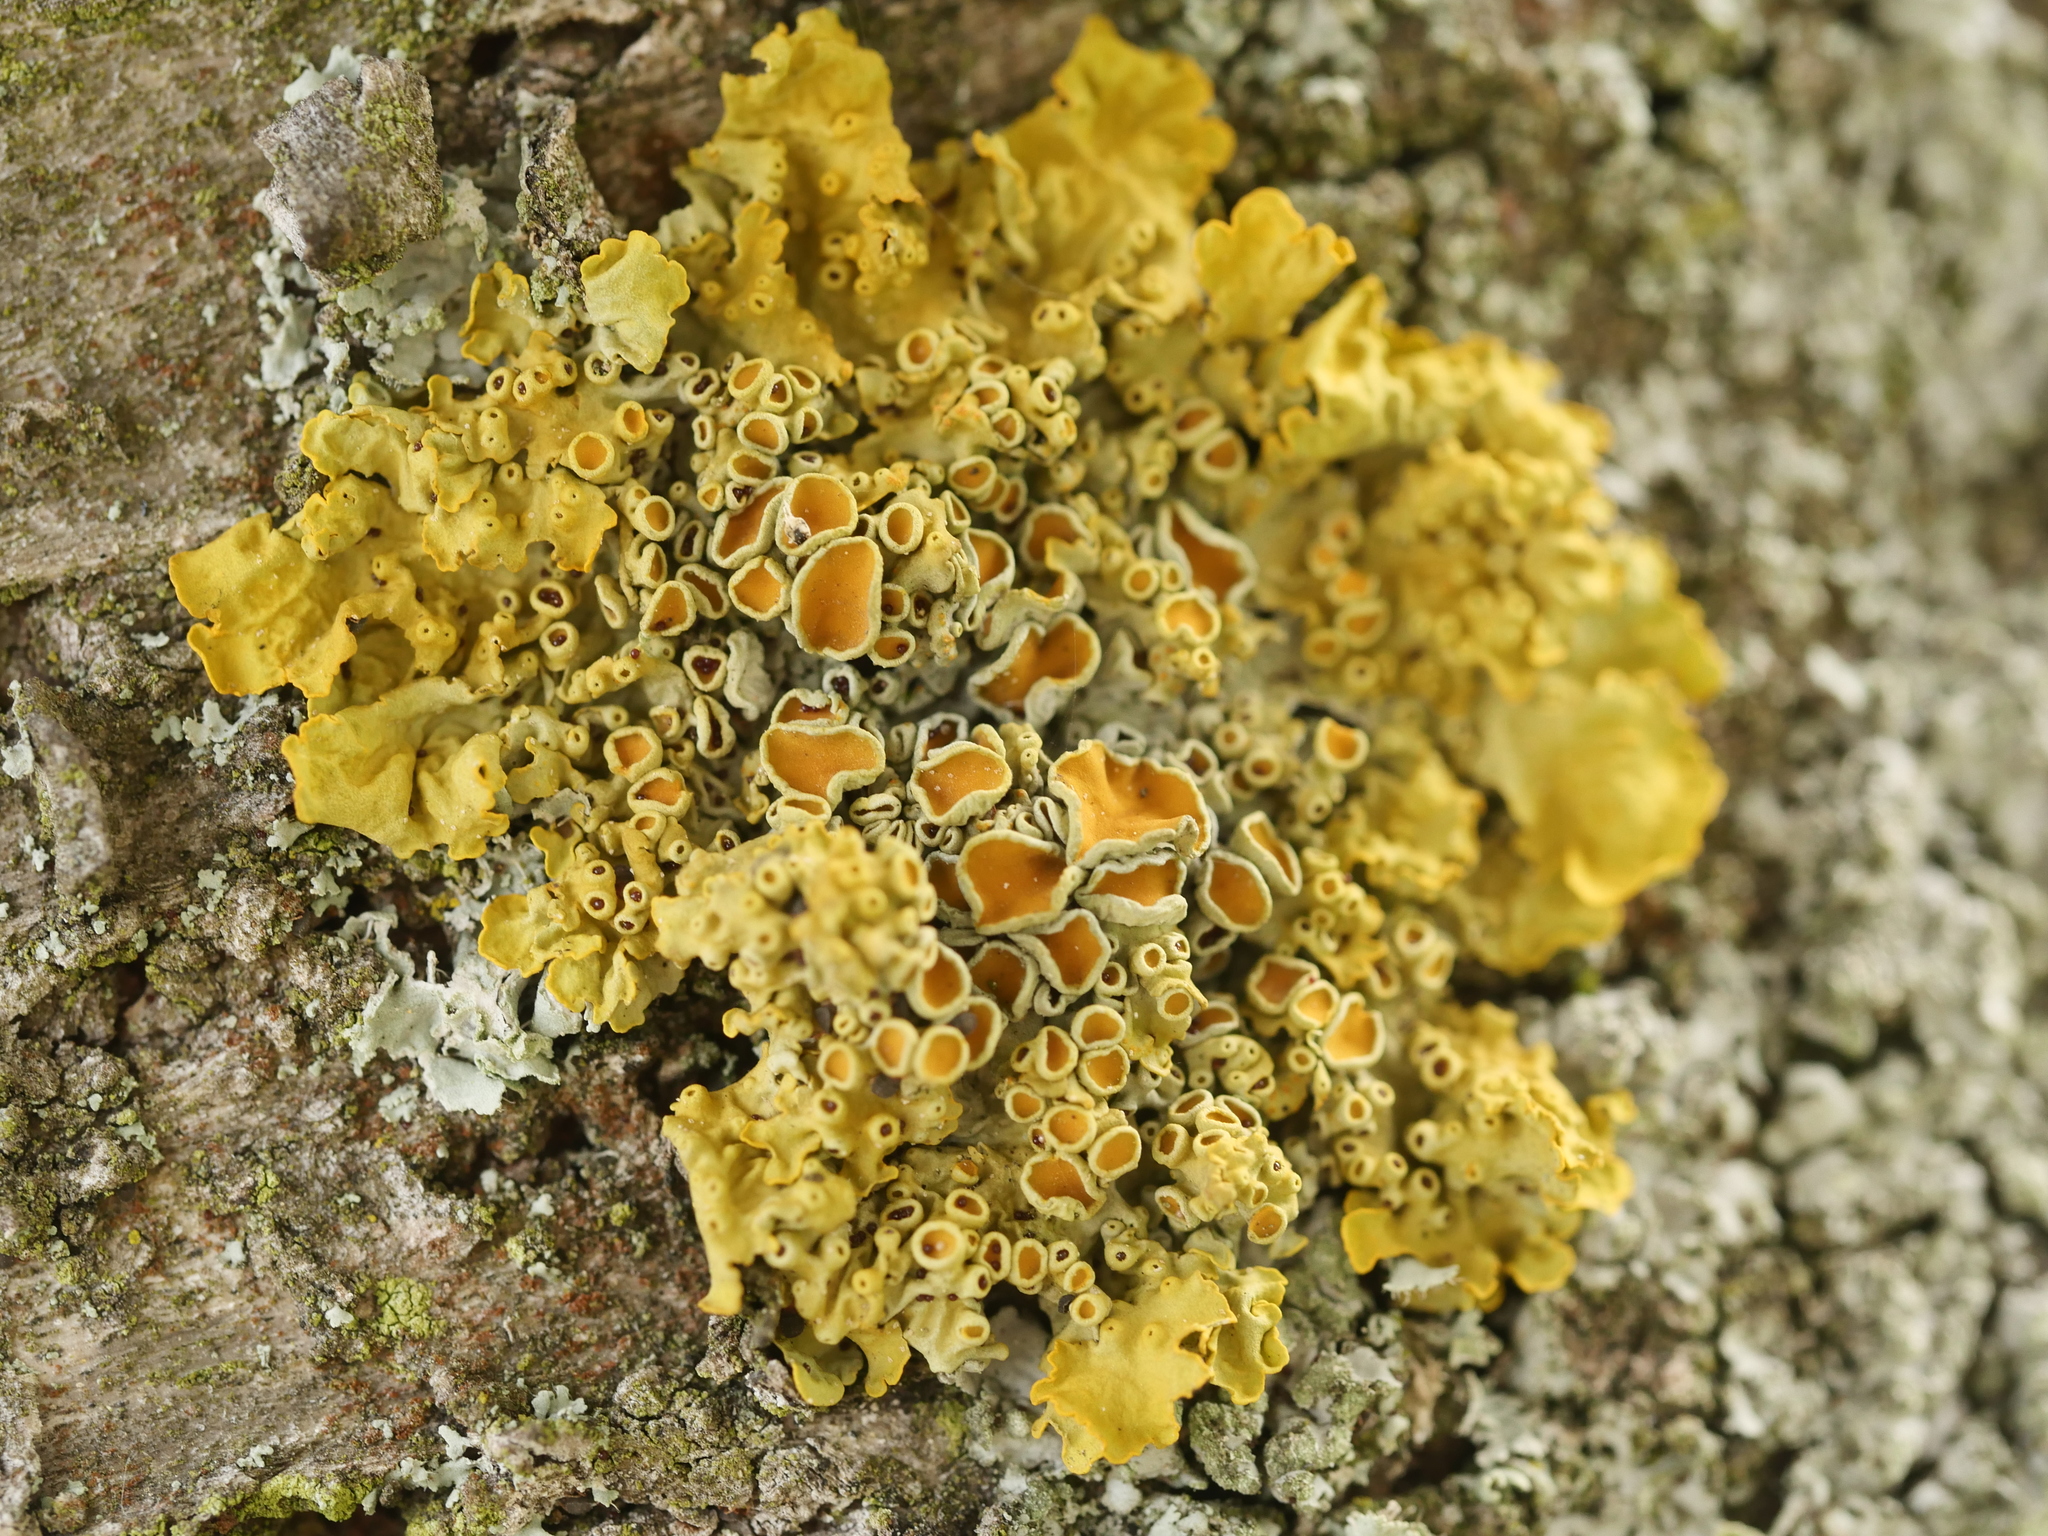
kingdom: Fungi
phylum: Ascomycota
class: Lecanoromycetes
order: Teloschistales
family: Teloschistaceae
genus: Xanthoria
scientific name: Xanthoria parietina
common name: Common orange lichen
